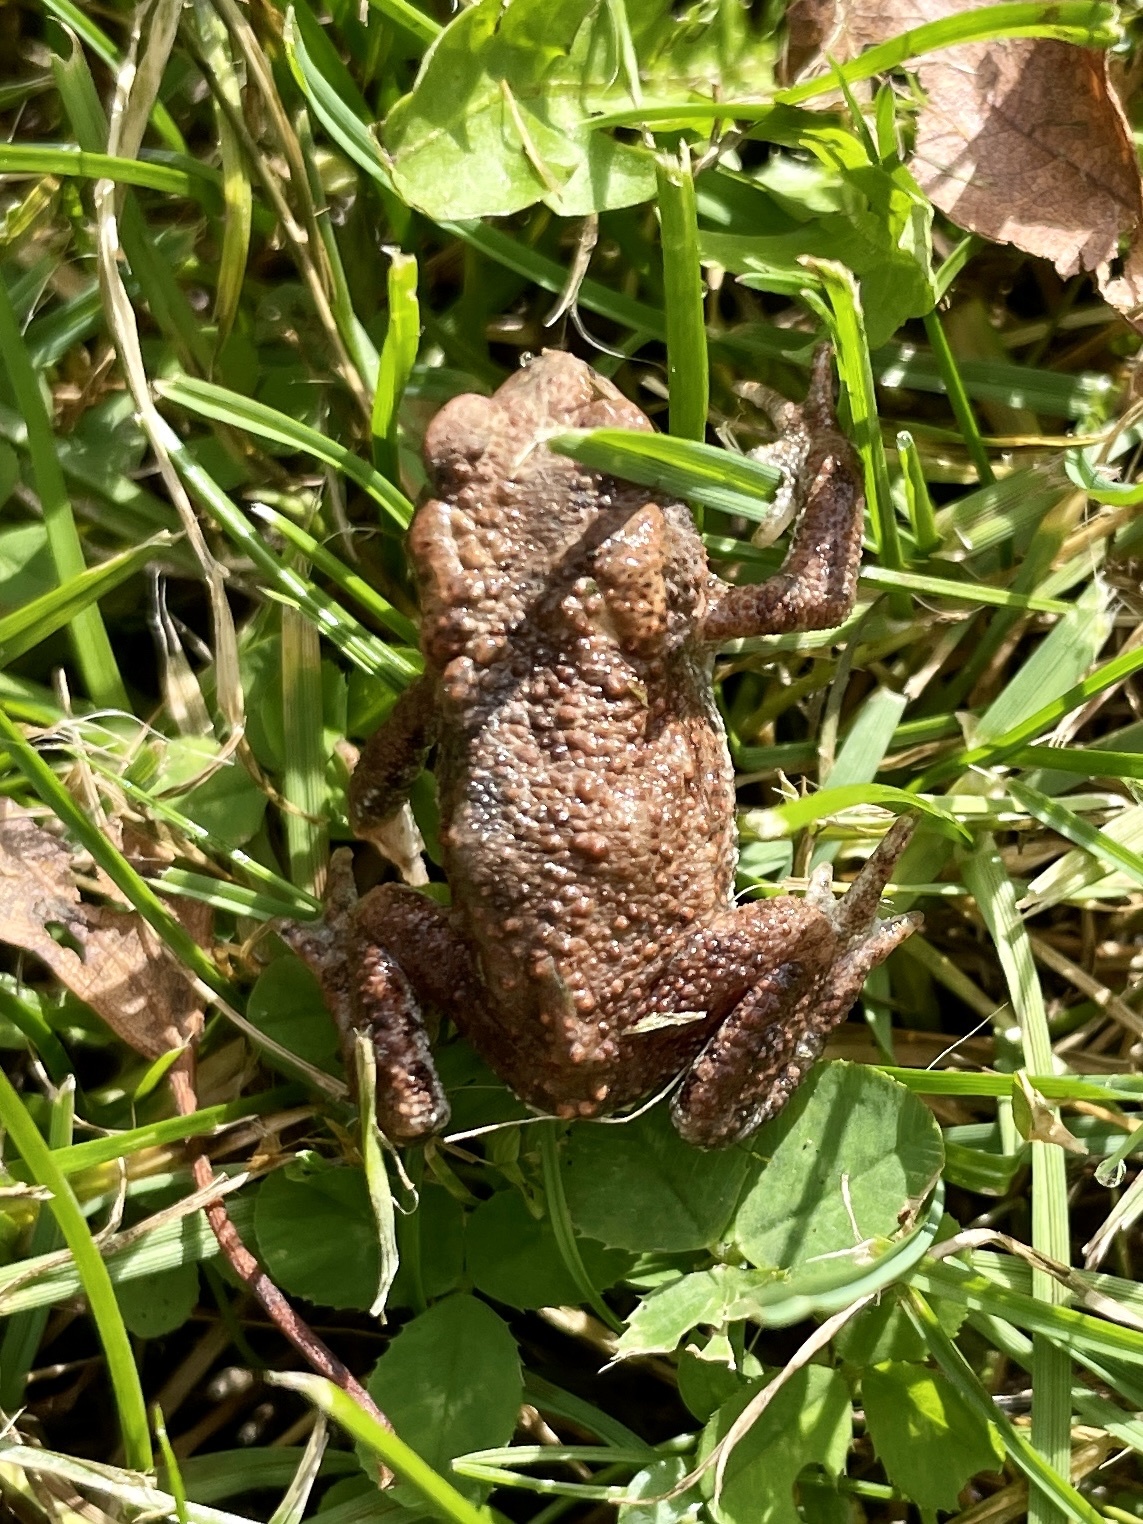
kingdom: Animalia
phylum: Chordata
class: Amphibia
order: Anura
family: Bufonidae
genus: Bufo
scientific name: Bufo bufo
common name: Common toad
